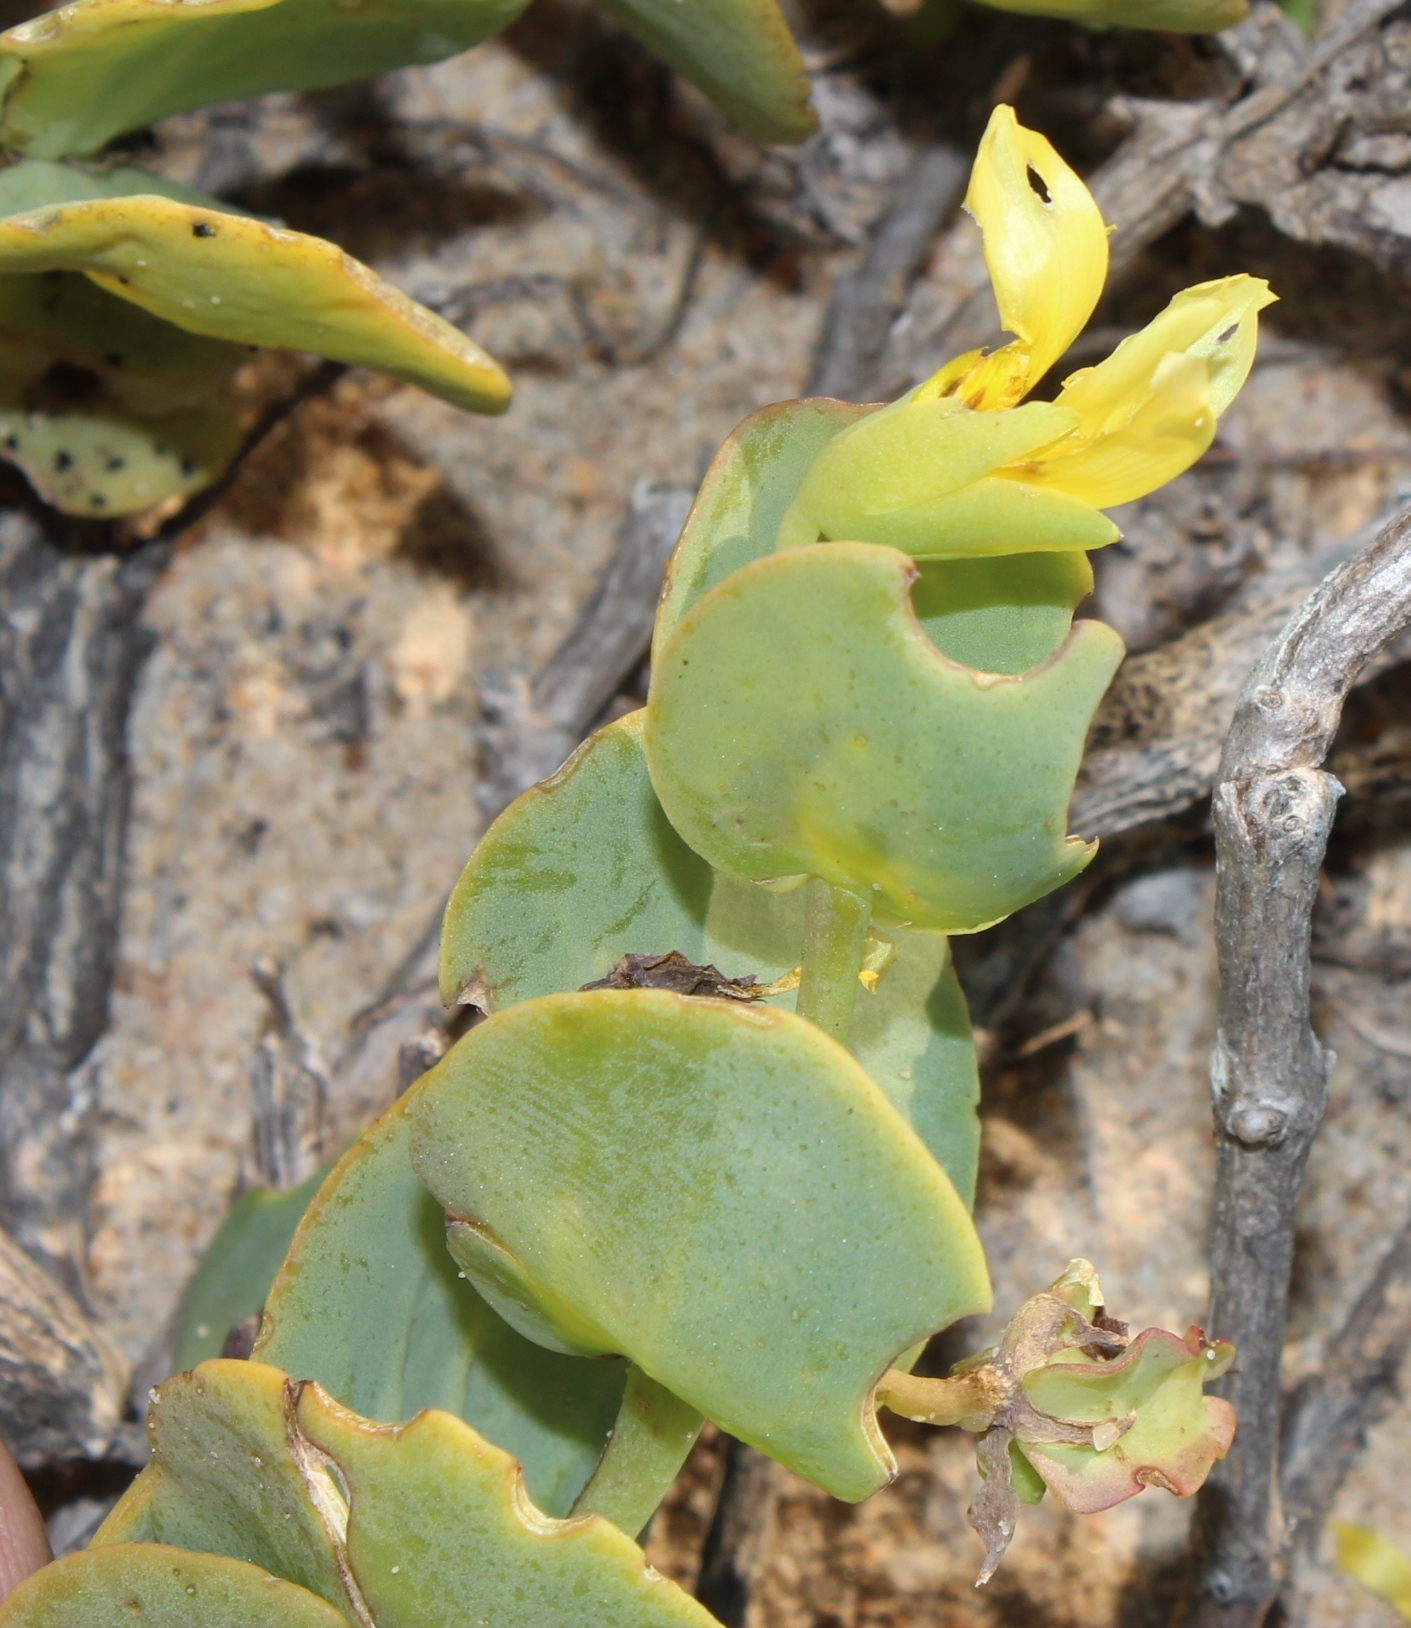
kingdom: Plantae
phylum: Tracheophyta
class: Magnoliopsida
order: Zygophyllales
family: Zygophyllaceae
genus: Roepera
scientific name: Roepera cordifolia
